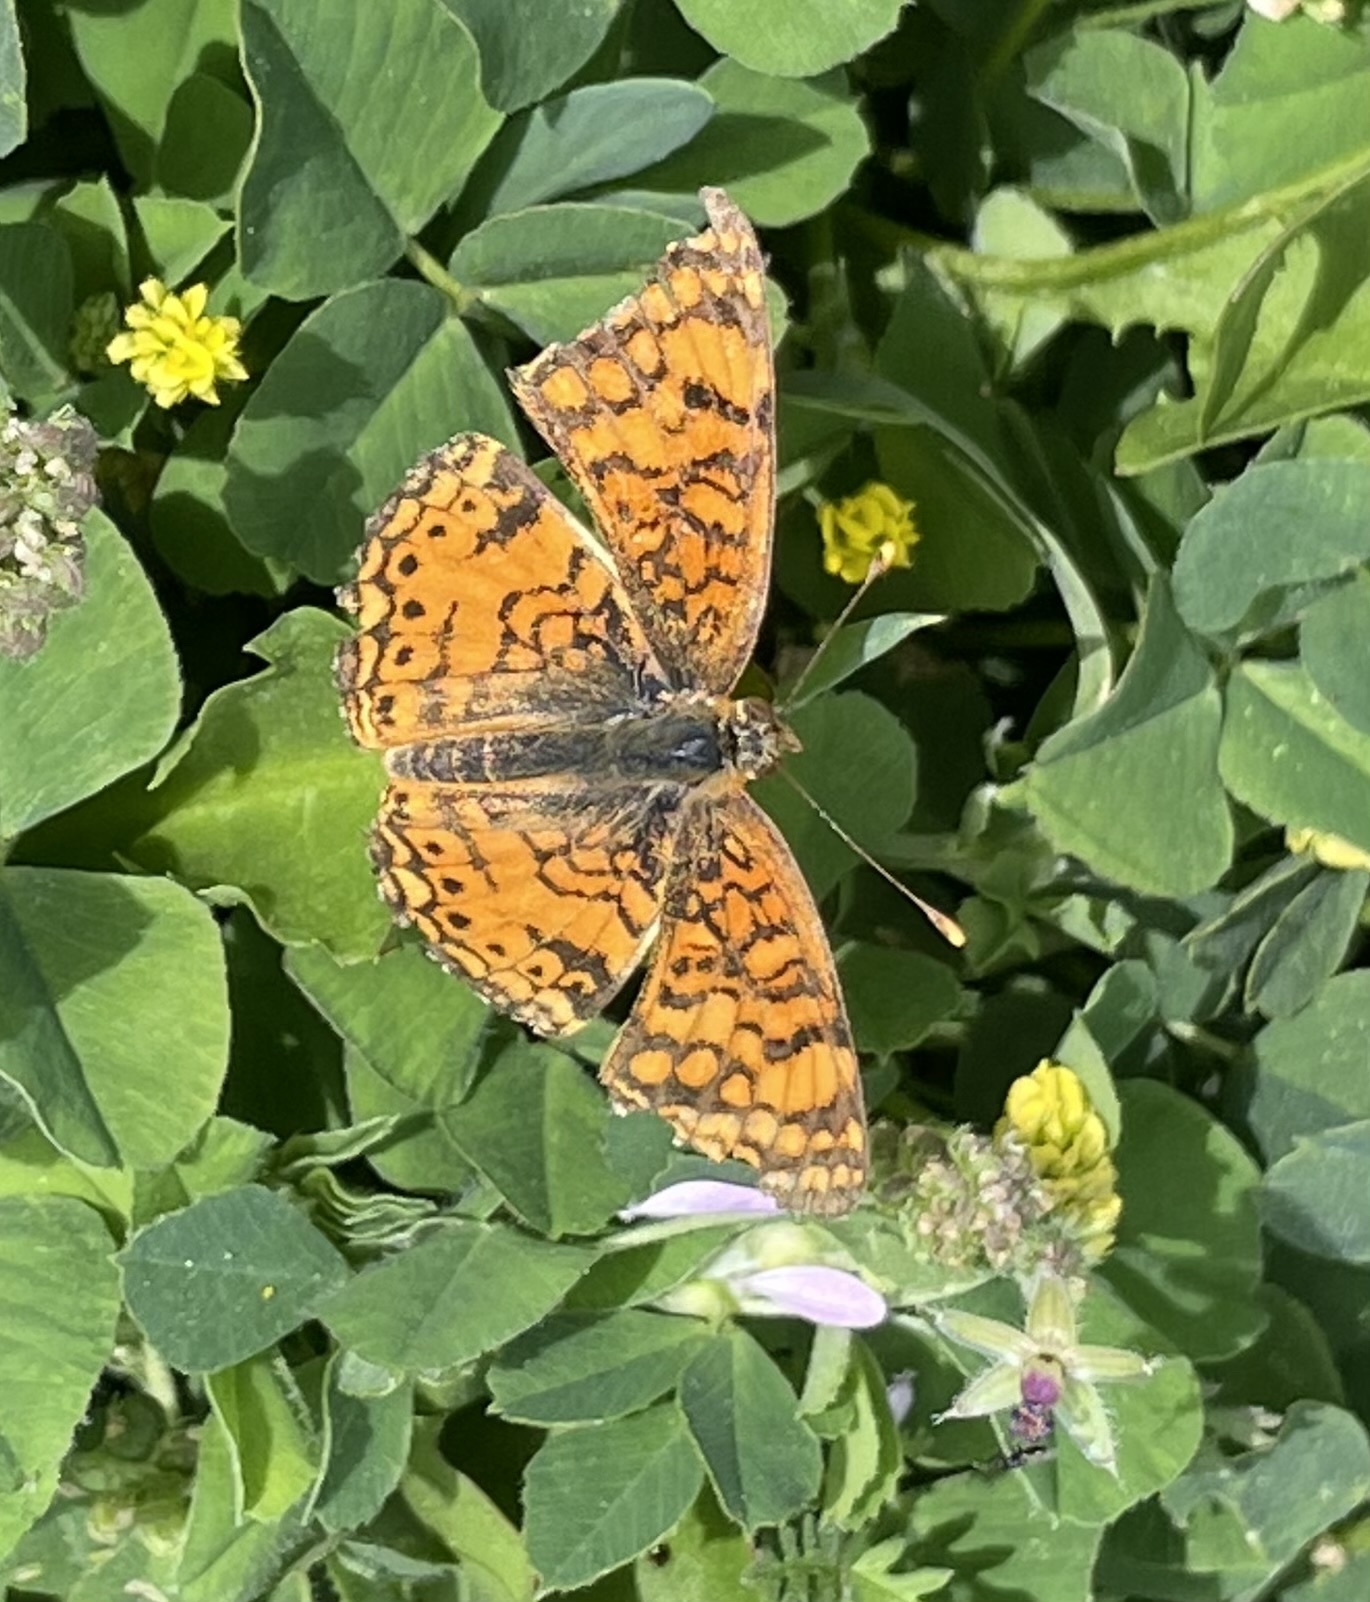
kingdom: Animalia
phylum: Arthropoda
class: Insecta
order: Lepidoptera
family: Nymphalidae
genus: Eresia
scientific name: Eresia aveyrona
